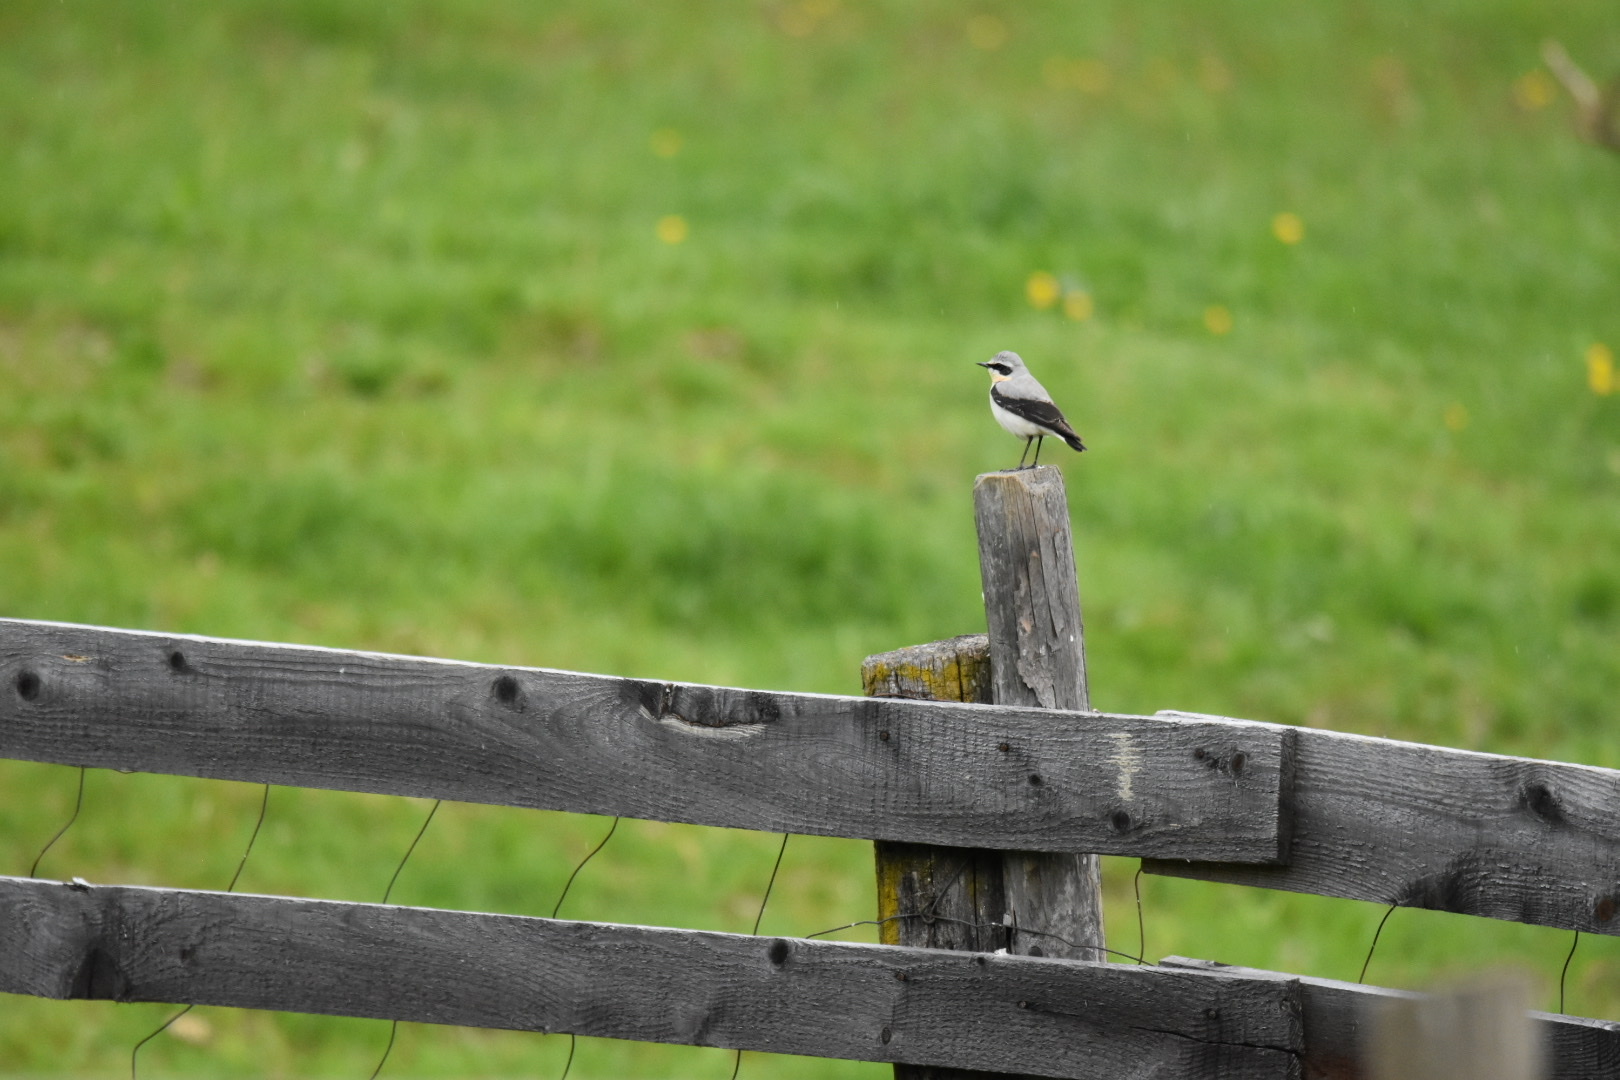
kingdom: Animalia
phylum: Chordata
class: Aves
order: Passeriformes
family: Muscicapidae
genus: Oenanthe
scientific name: Oenanthe oenanthe
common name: Northern wheatear
